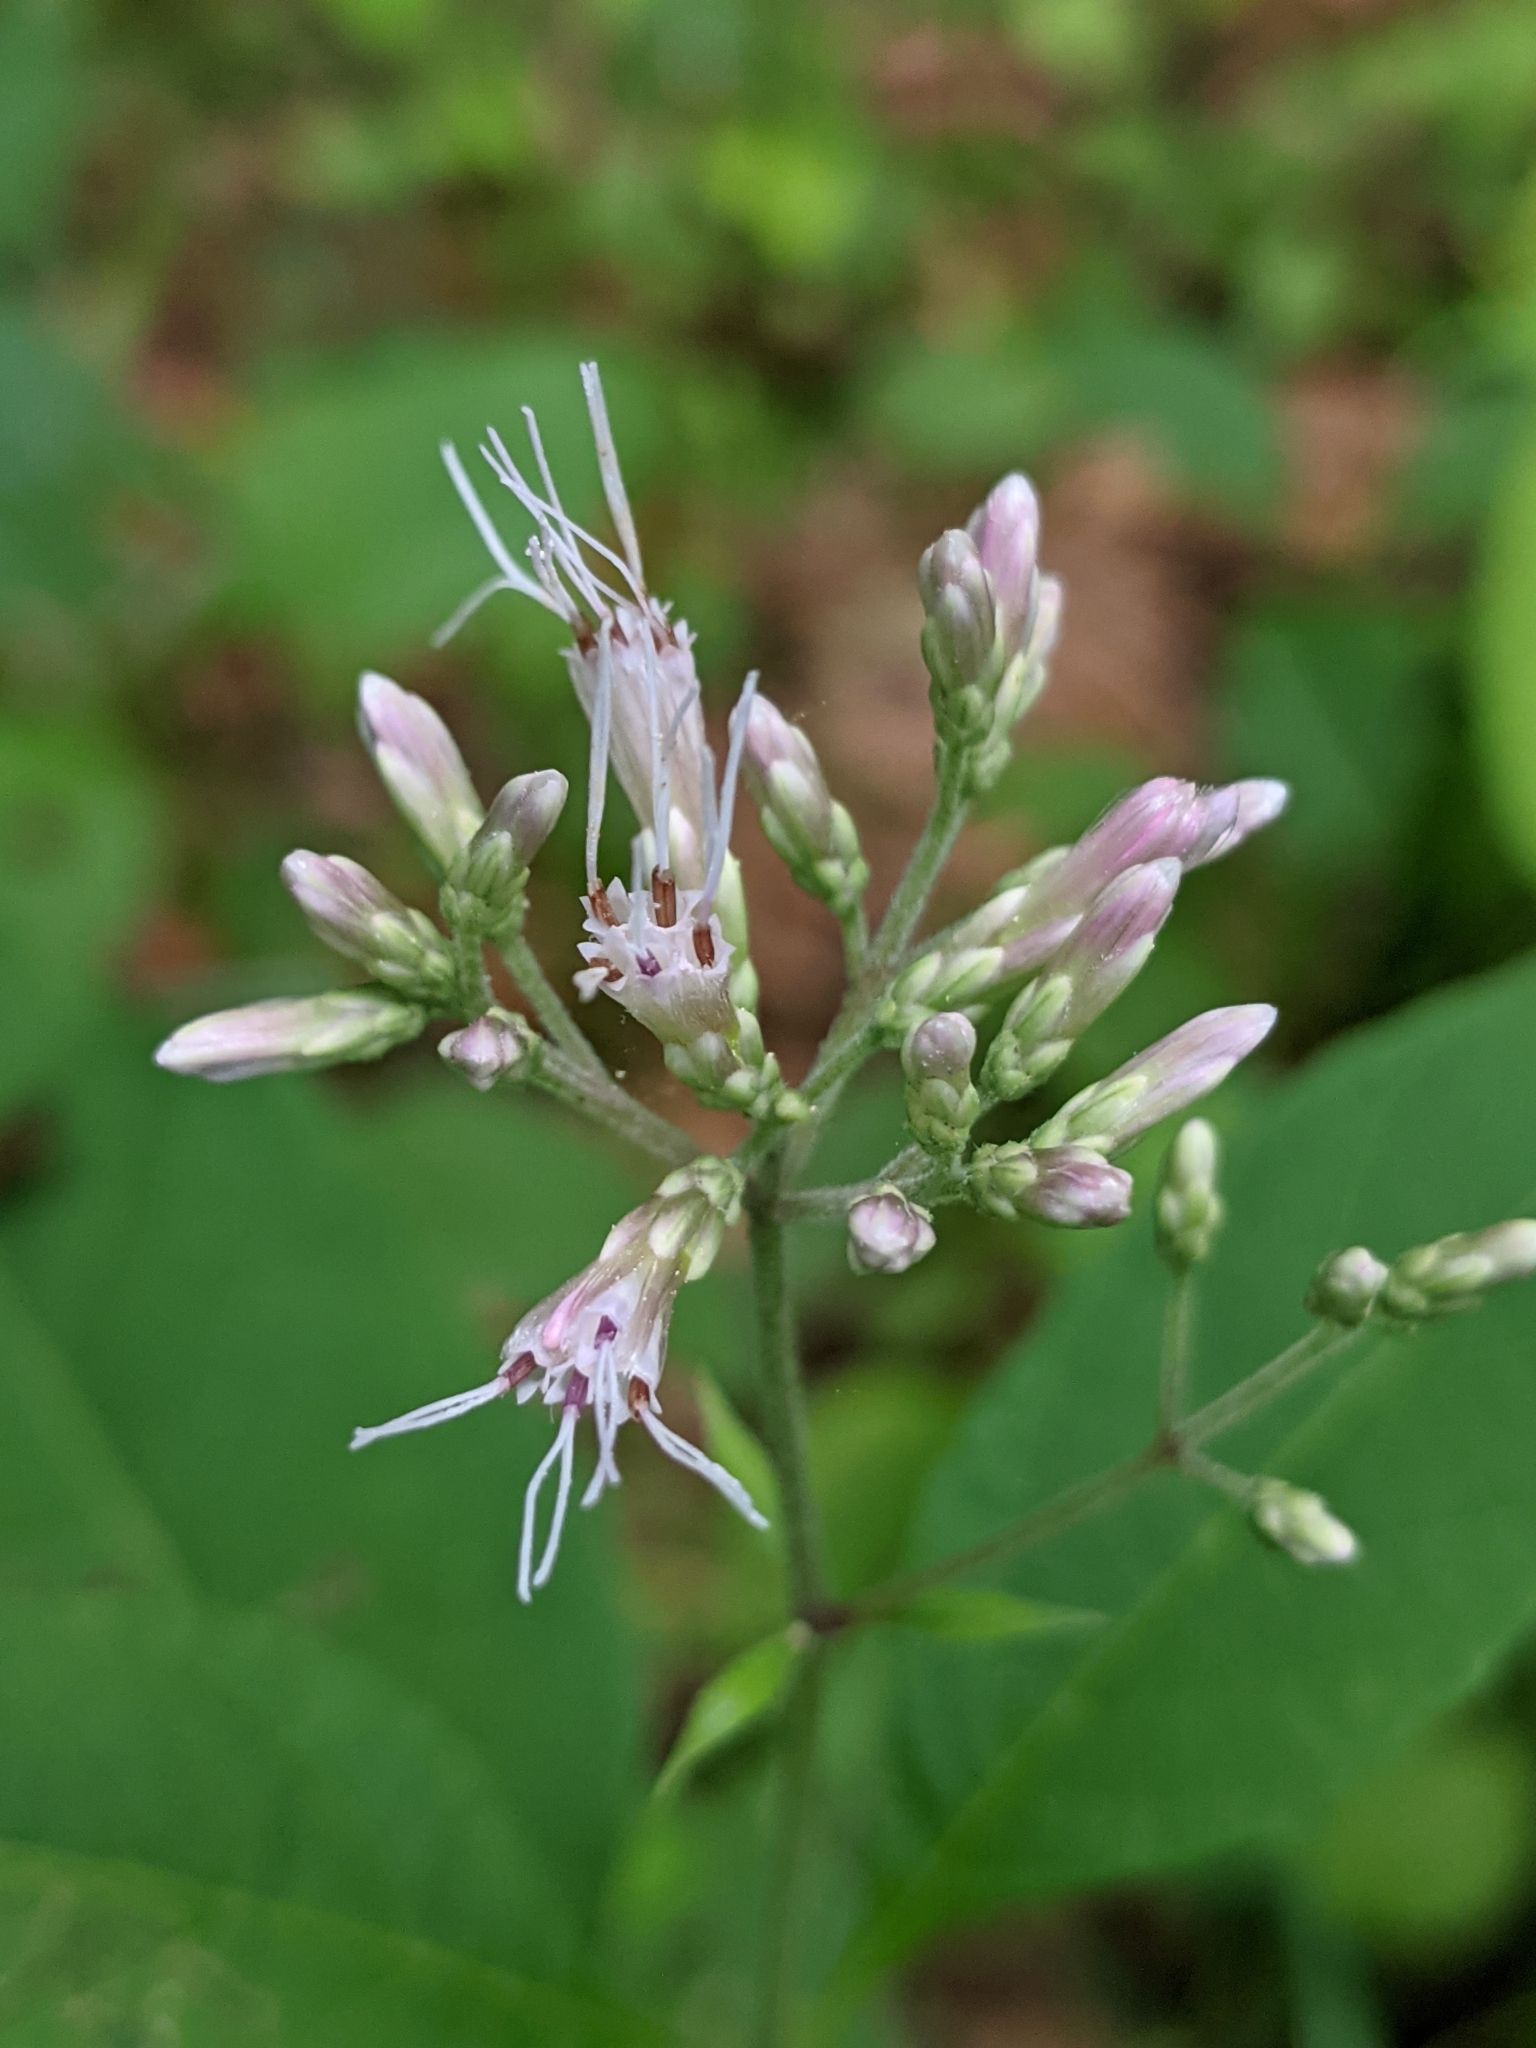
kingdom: Plantae
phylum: Tracheophyta
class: Magnoliopsida
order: Asterales
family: Asteraceae
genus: Eutrochium
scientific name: Eutrochium purpureum
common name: Gravelroot
